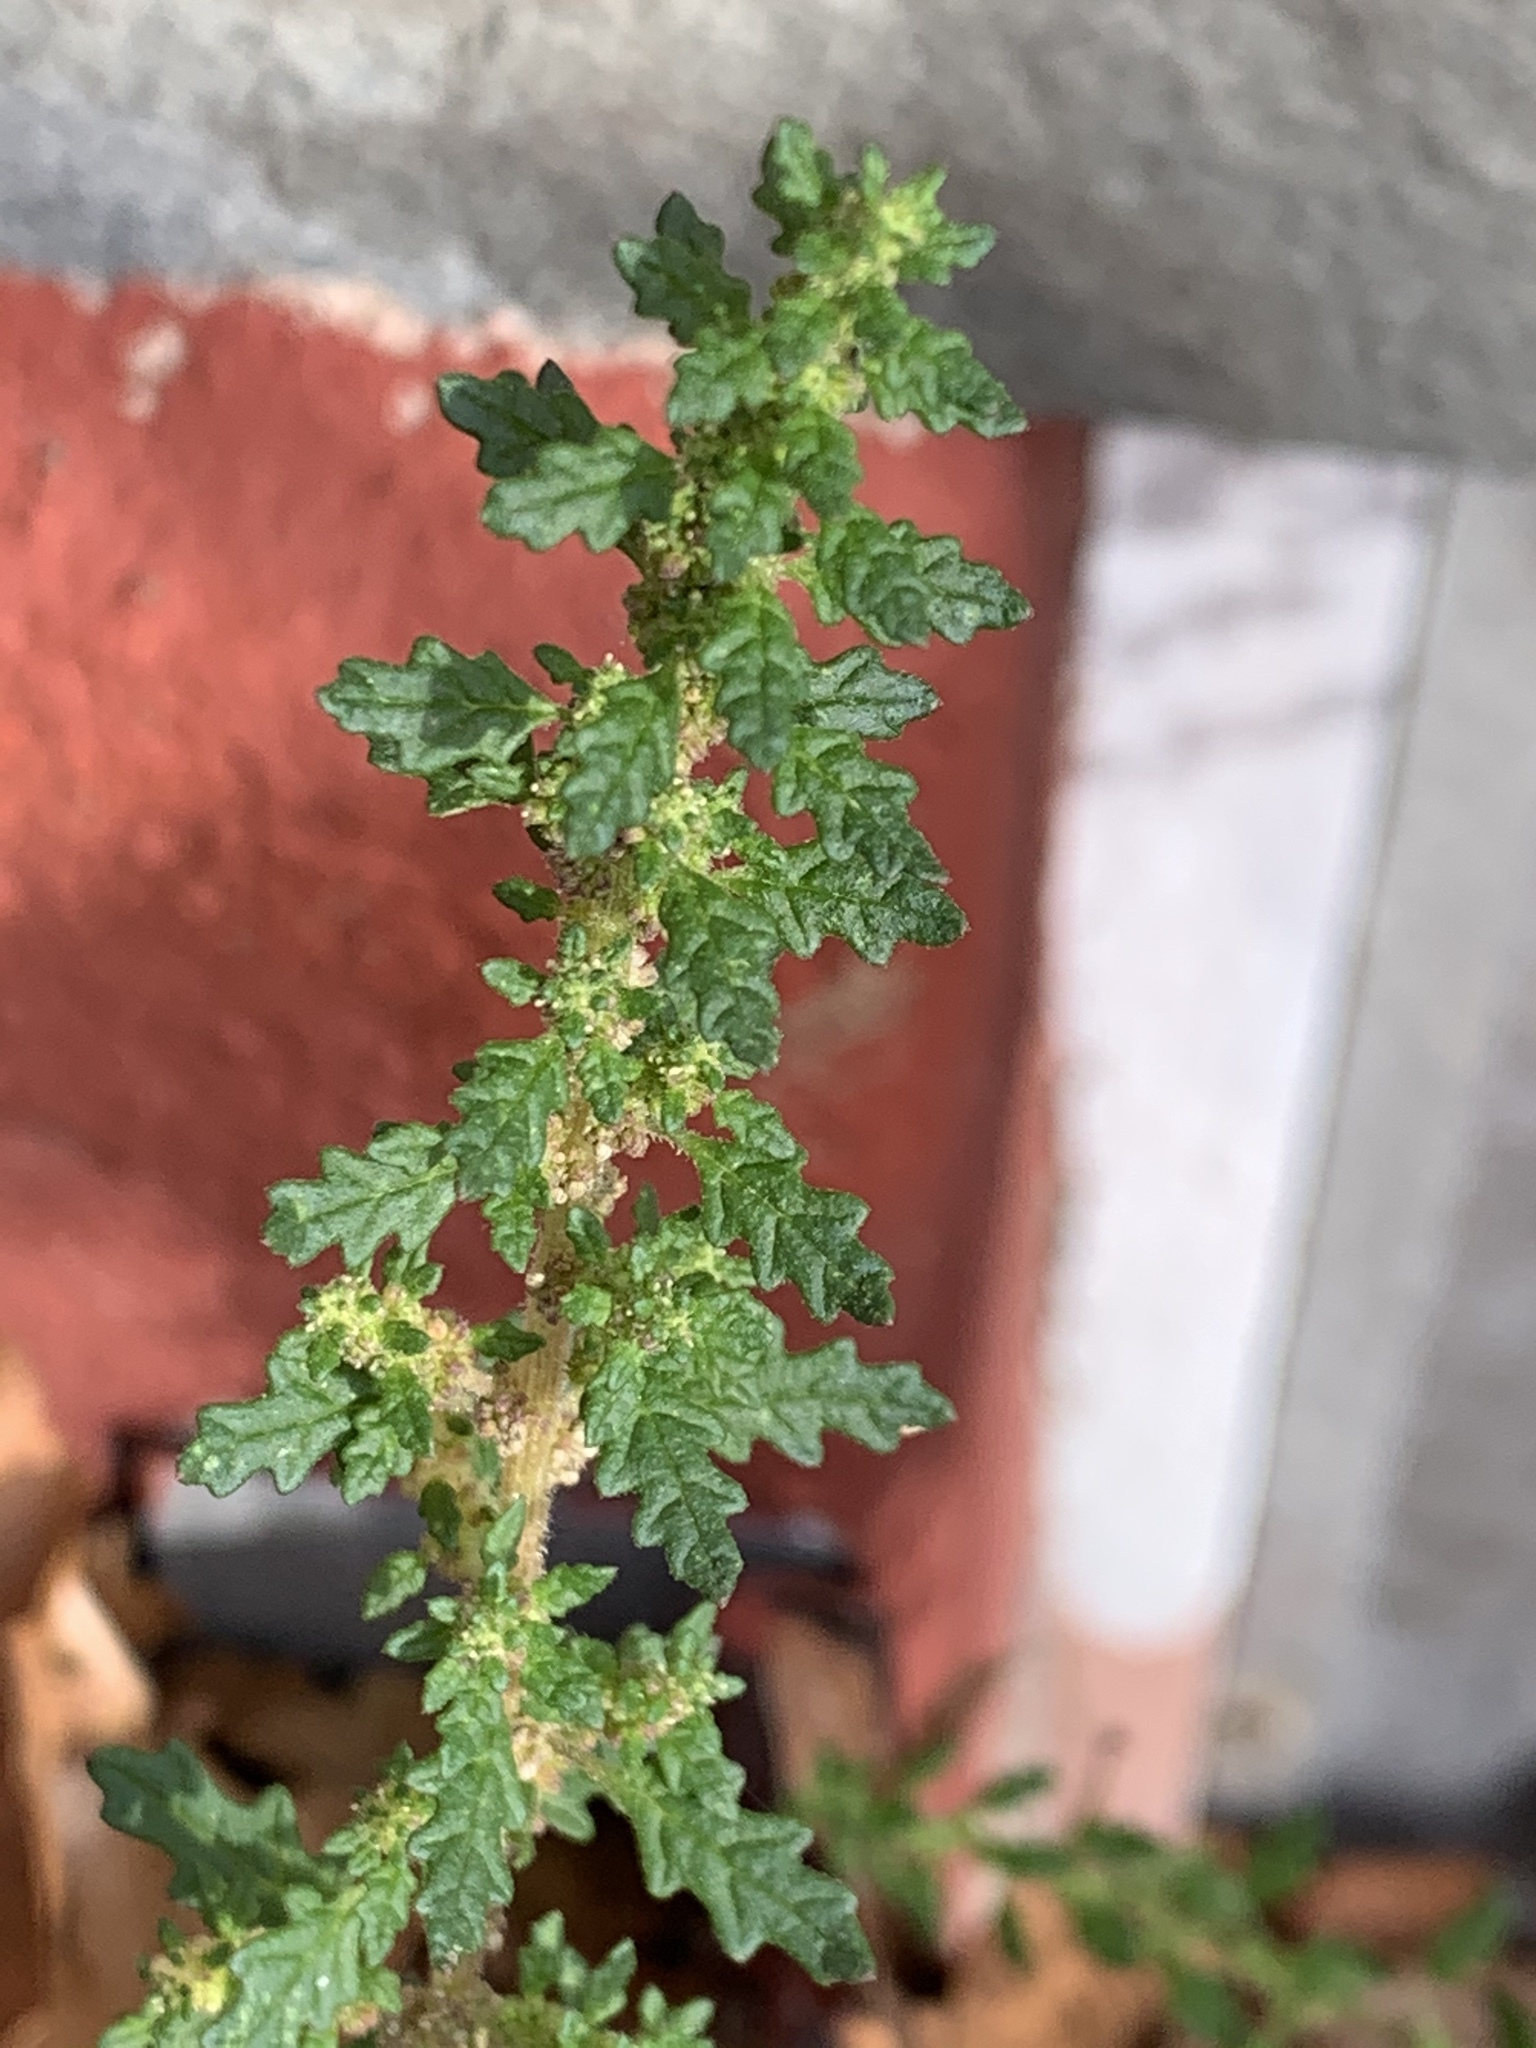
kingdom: Plantae
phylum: Tracheophyta
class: Magnoliopsida
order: Caryophyllales
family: Amaranthaceae
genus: Dysphania
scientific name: Dysphania pumilio
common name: Clammy goosefoot
